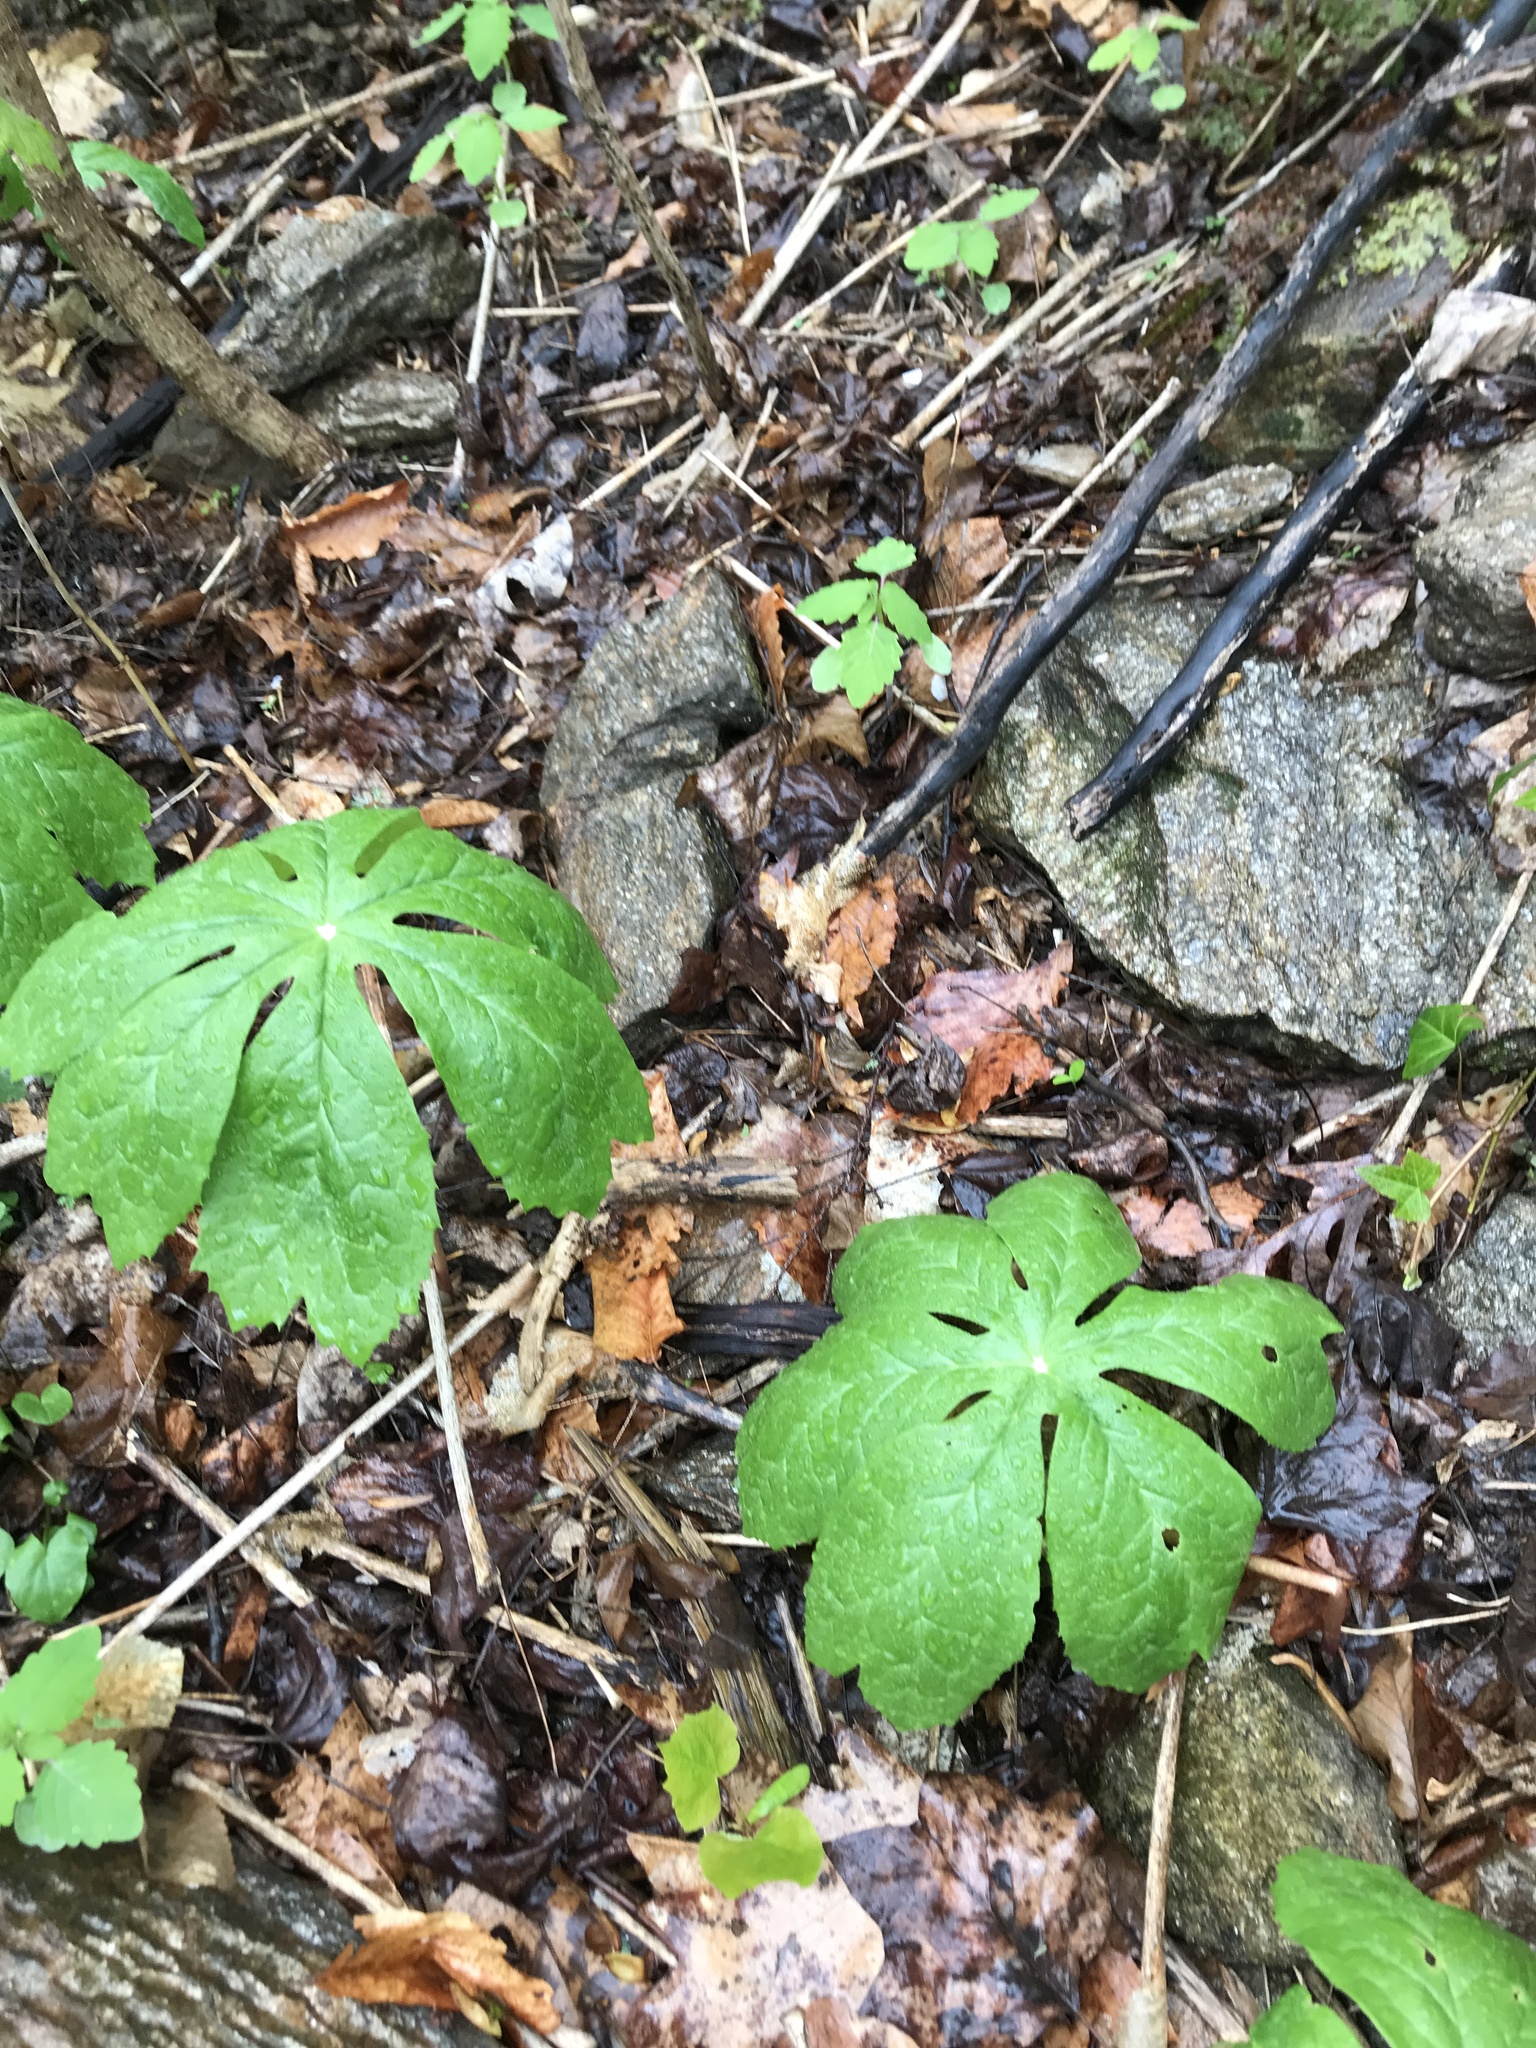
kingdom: Plantae
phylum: Tracheophyta
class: Magnoliopsida
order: Ranunculales
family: Berberidaceae
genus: Podophyllum
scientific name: Podophyllum peltatum
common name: Wild mandrake
